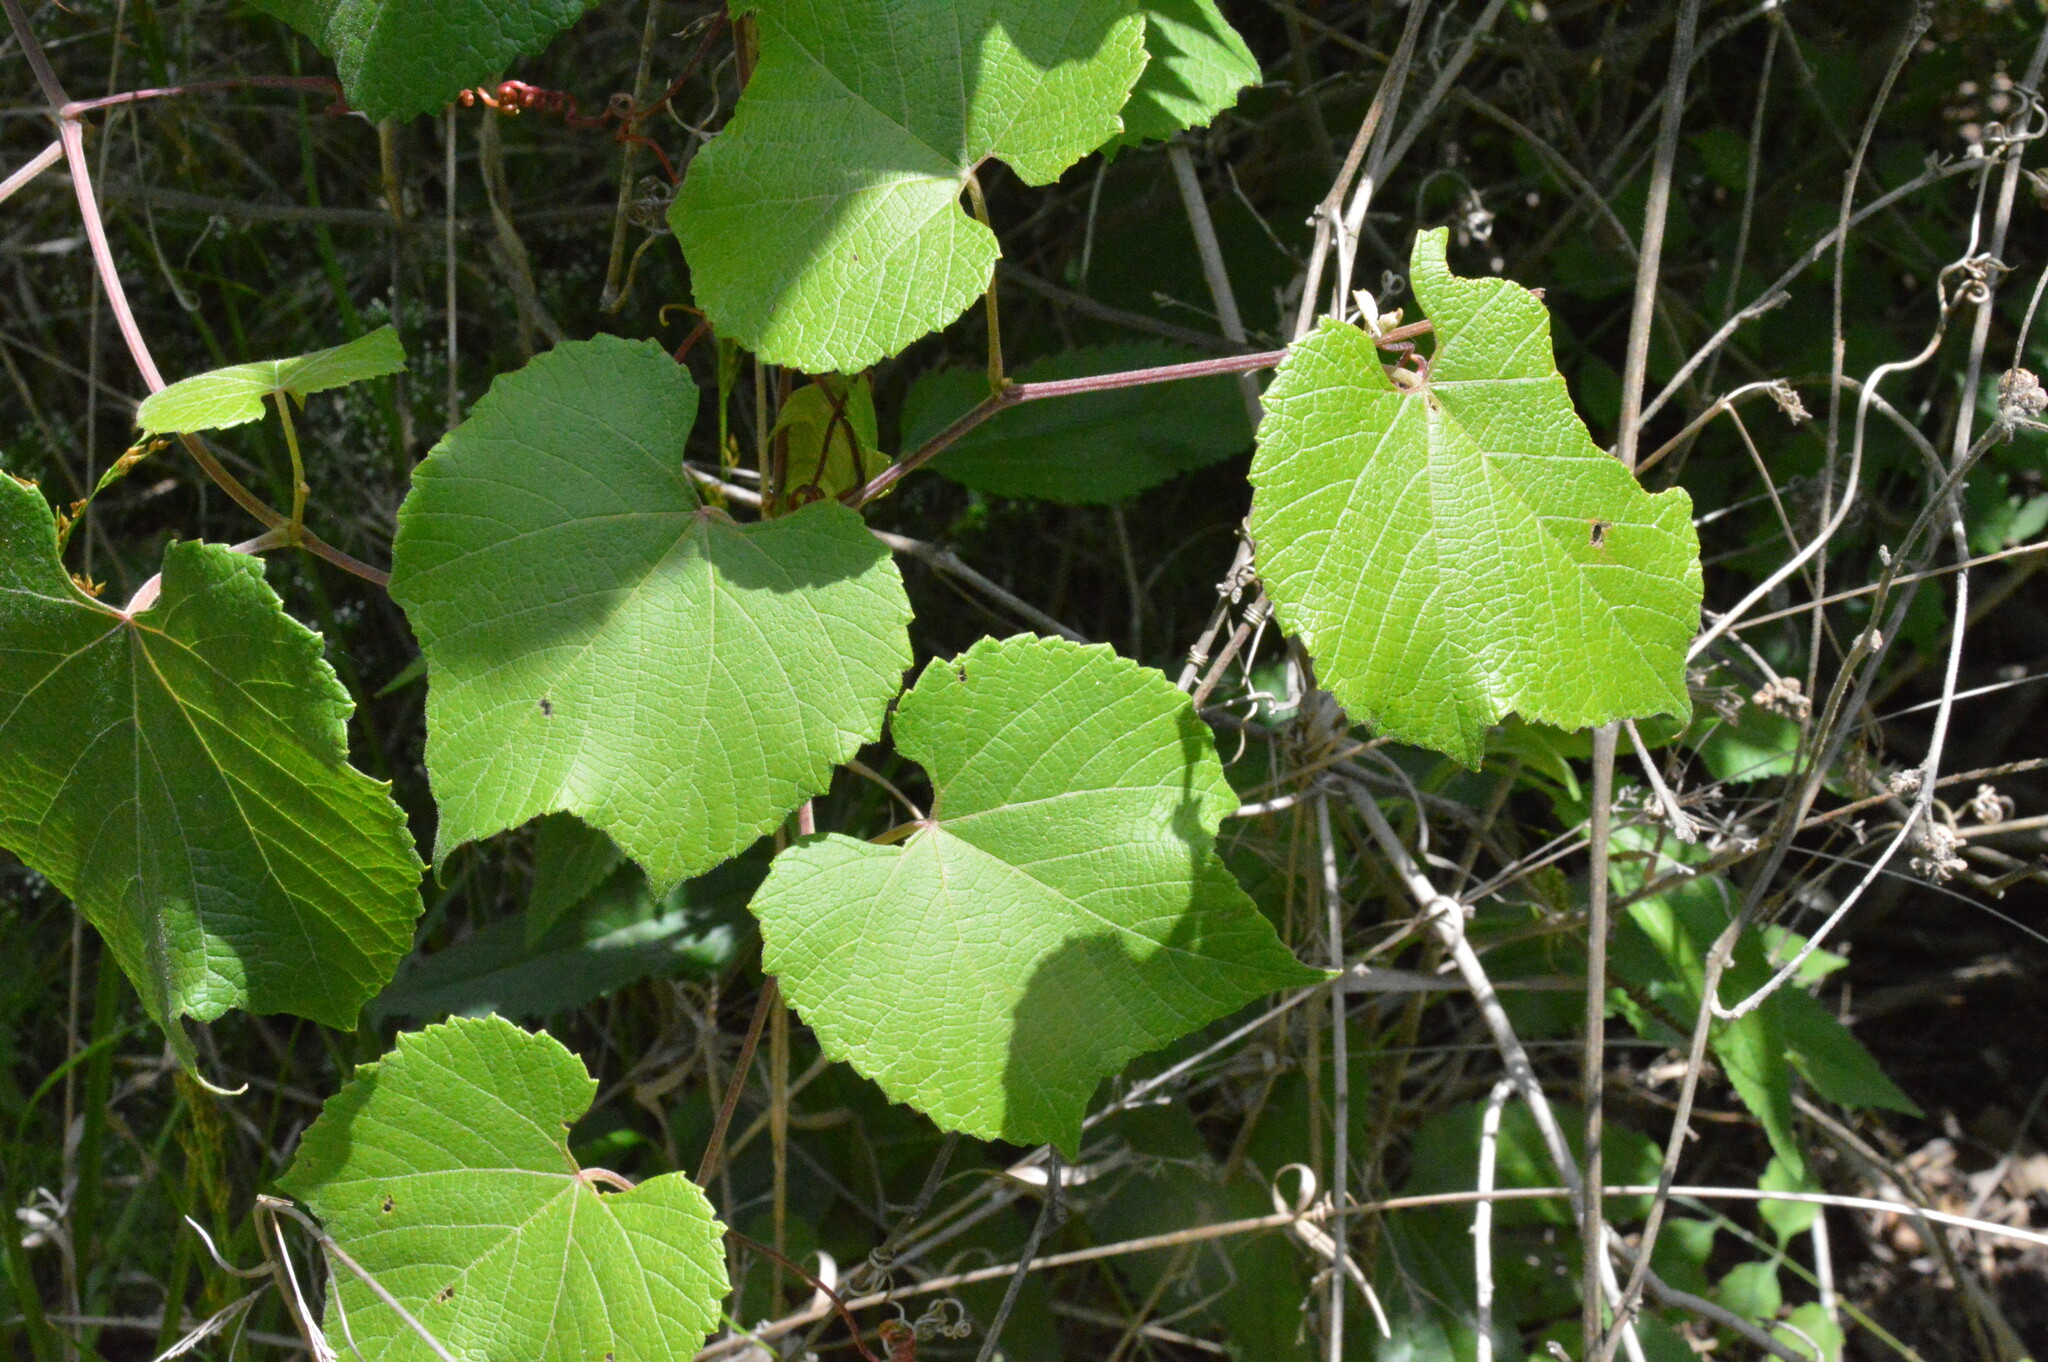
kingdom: Plantae
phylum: Tracheophyta
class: Magnoliopsida
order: Vitales
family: Vitaceae
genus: Vitis
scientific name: Vitis cinerea
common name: Ashy grape
